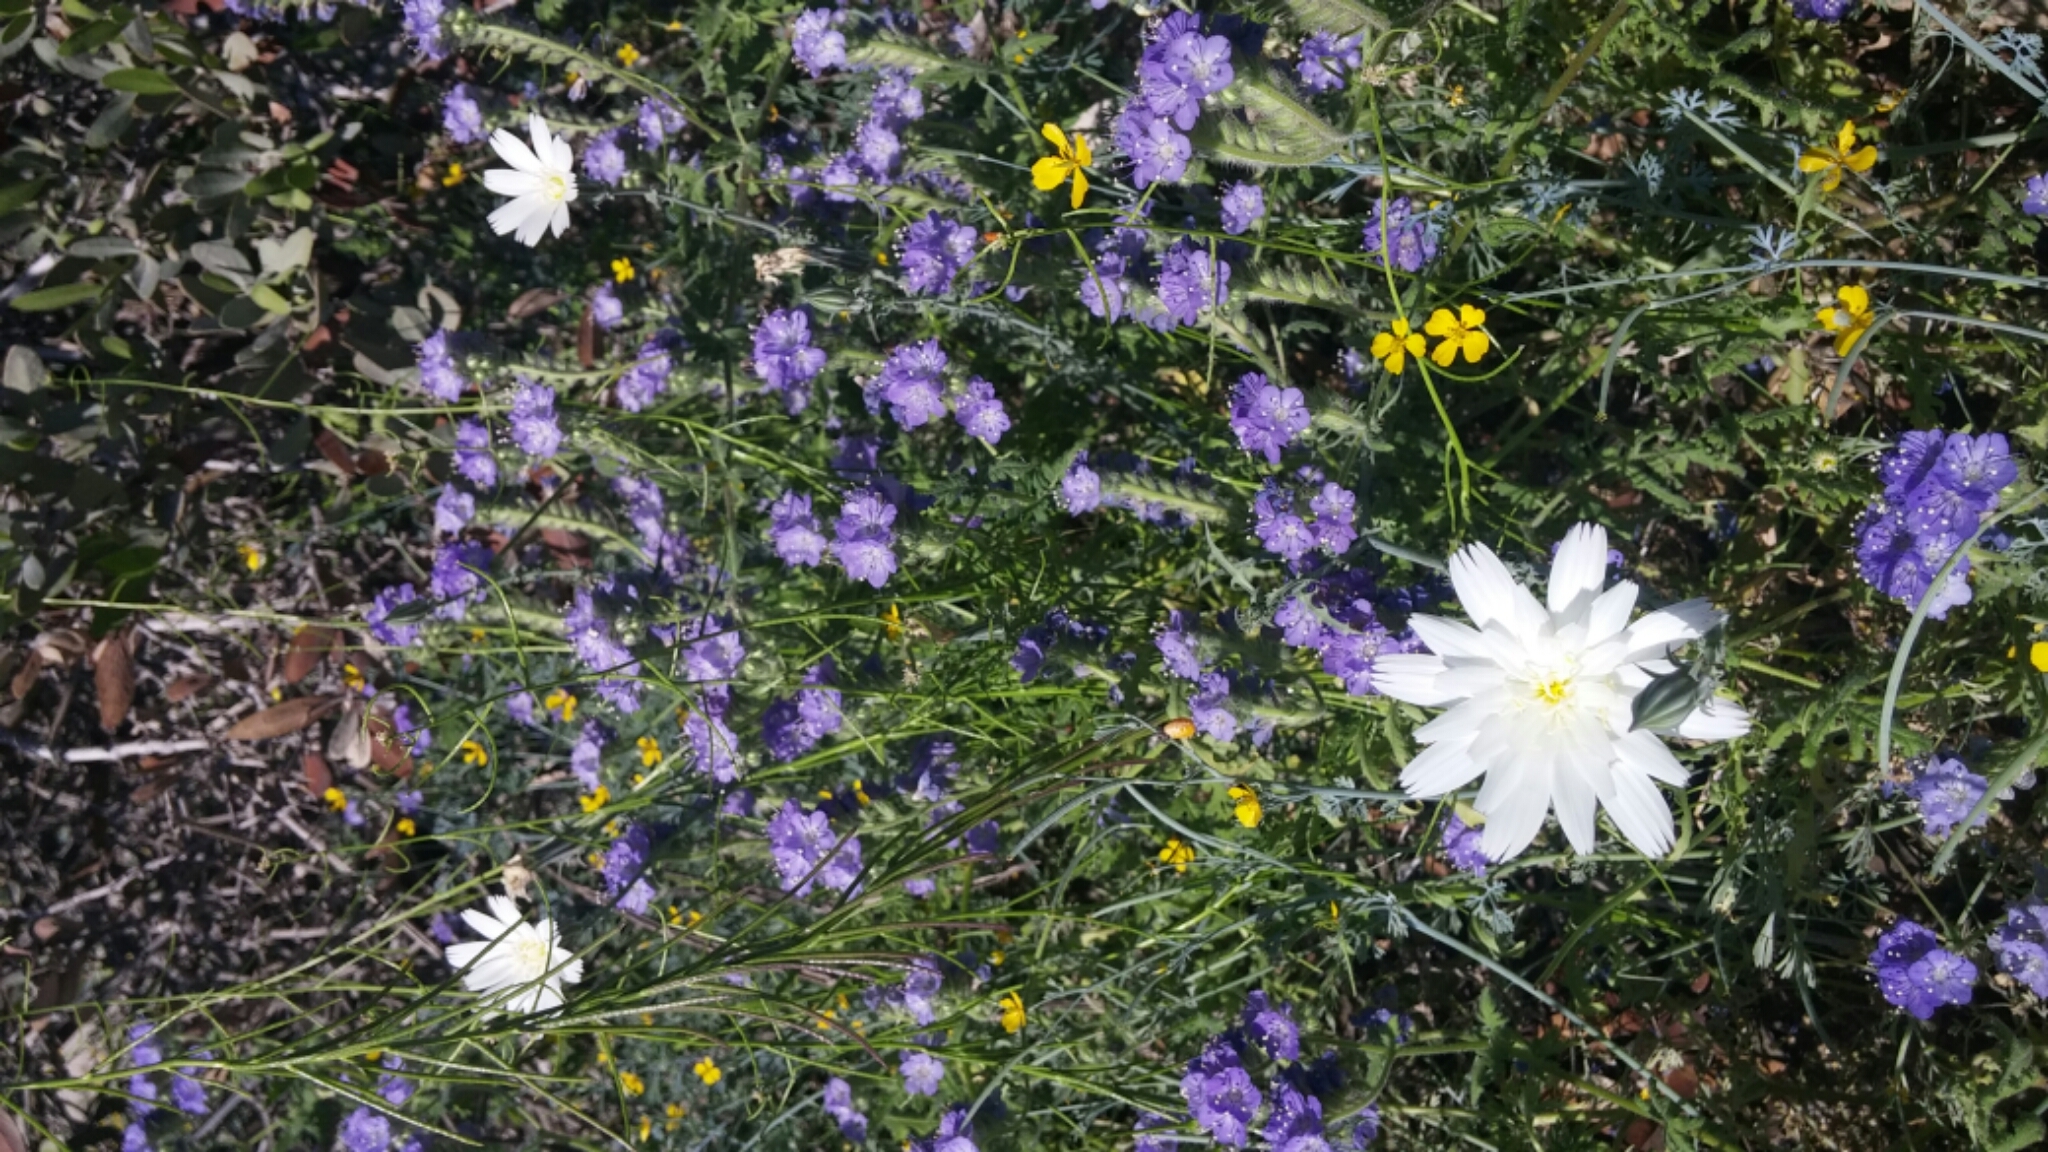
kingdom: Plantae
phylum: Tracheophyta
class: Magnoliopsida
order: Asterales
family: Asteraceae
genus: Rafinesquia
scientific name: Rafinesquia neomexicana
